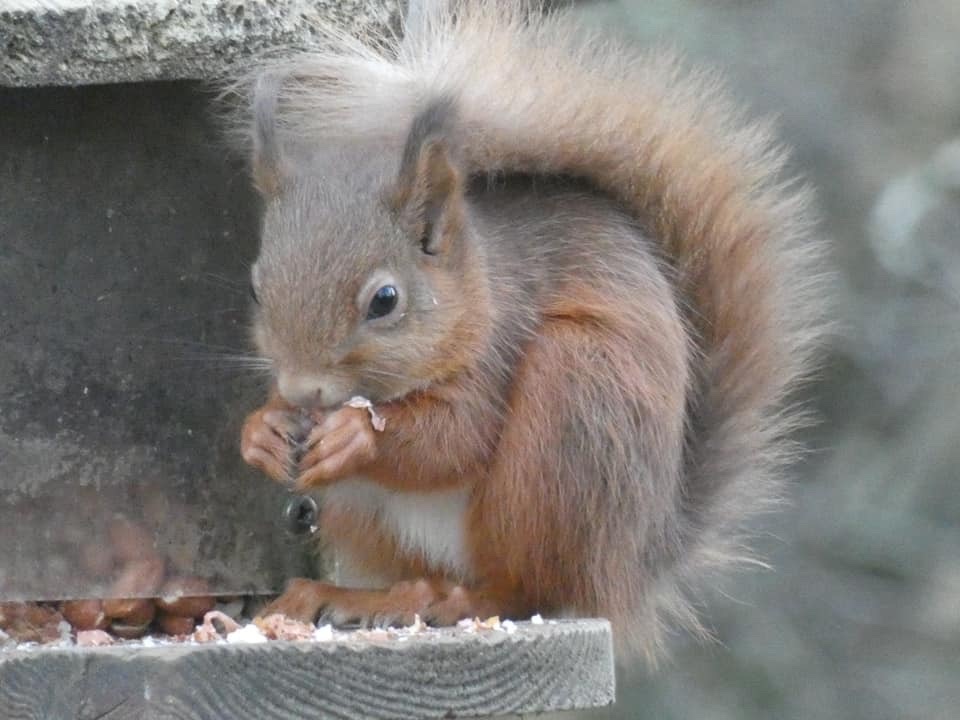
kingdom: Animalia
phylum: Chordata
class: Mammalia
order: Rodentia
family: Sciuridae
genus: Sciurus
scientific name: Sciurus vulgaris
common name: Eurasian red squirrel
